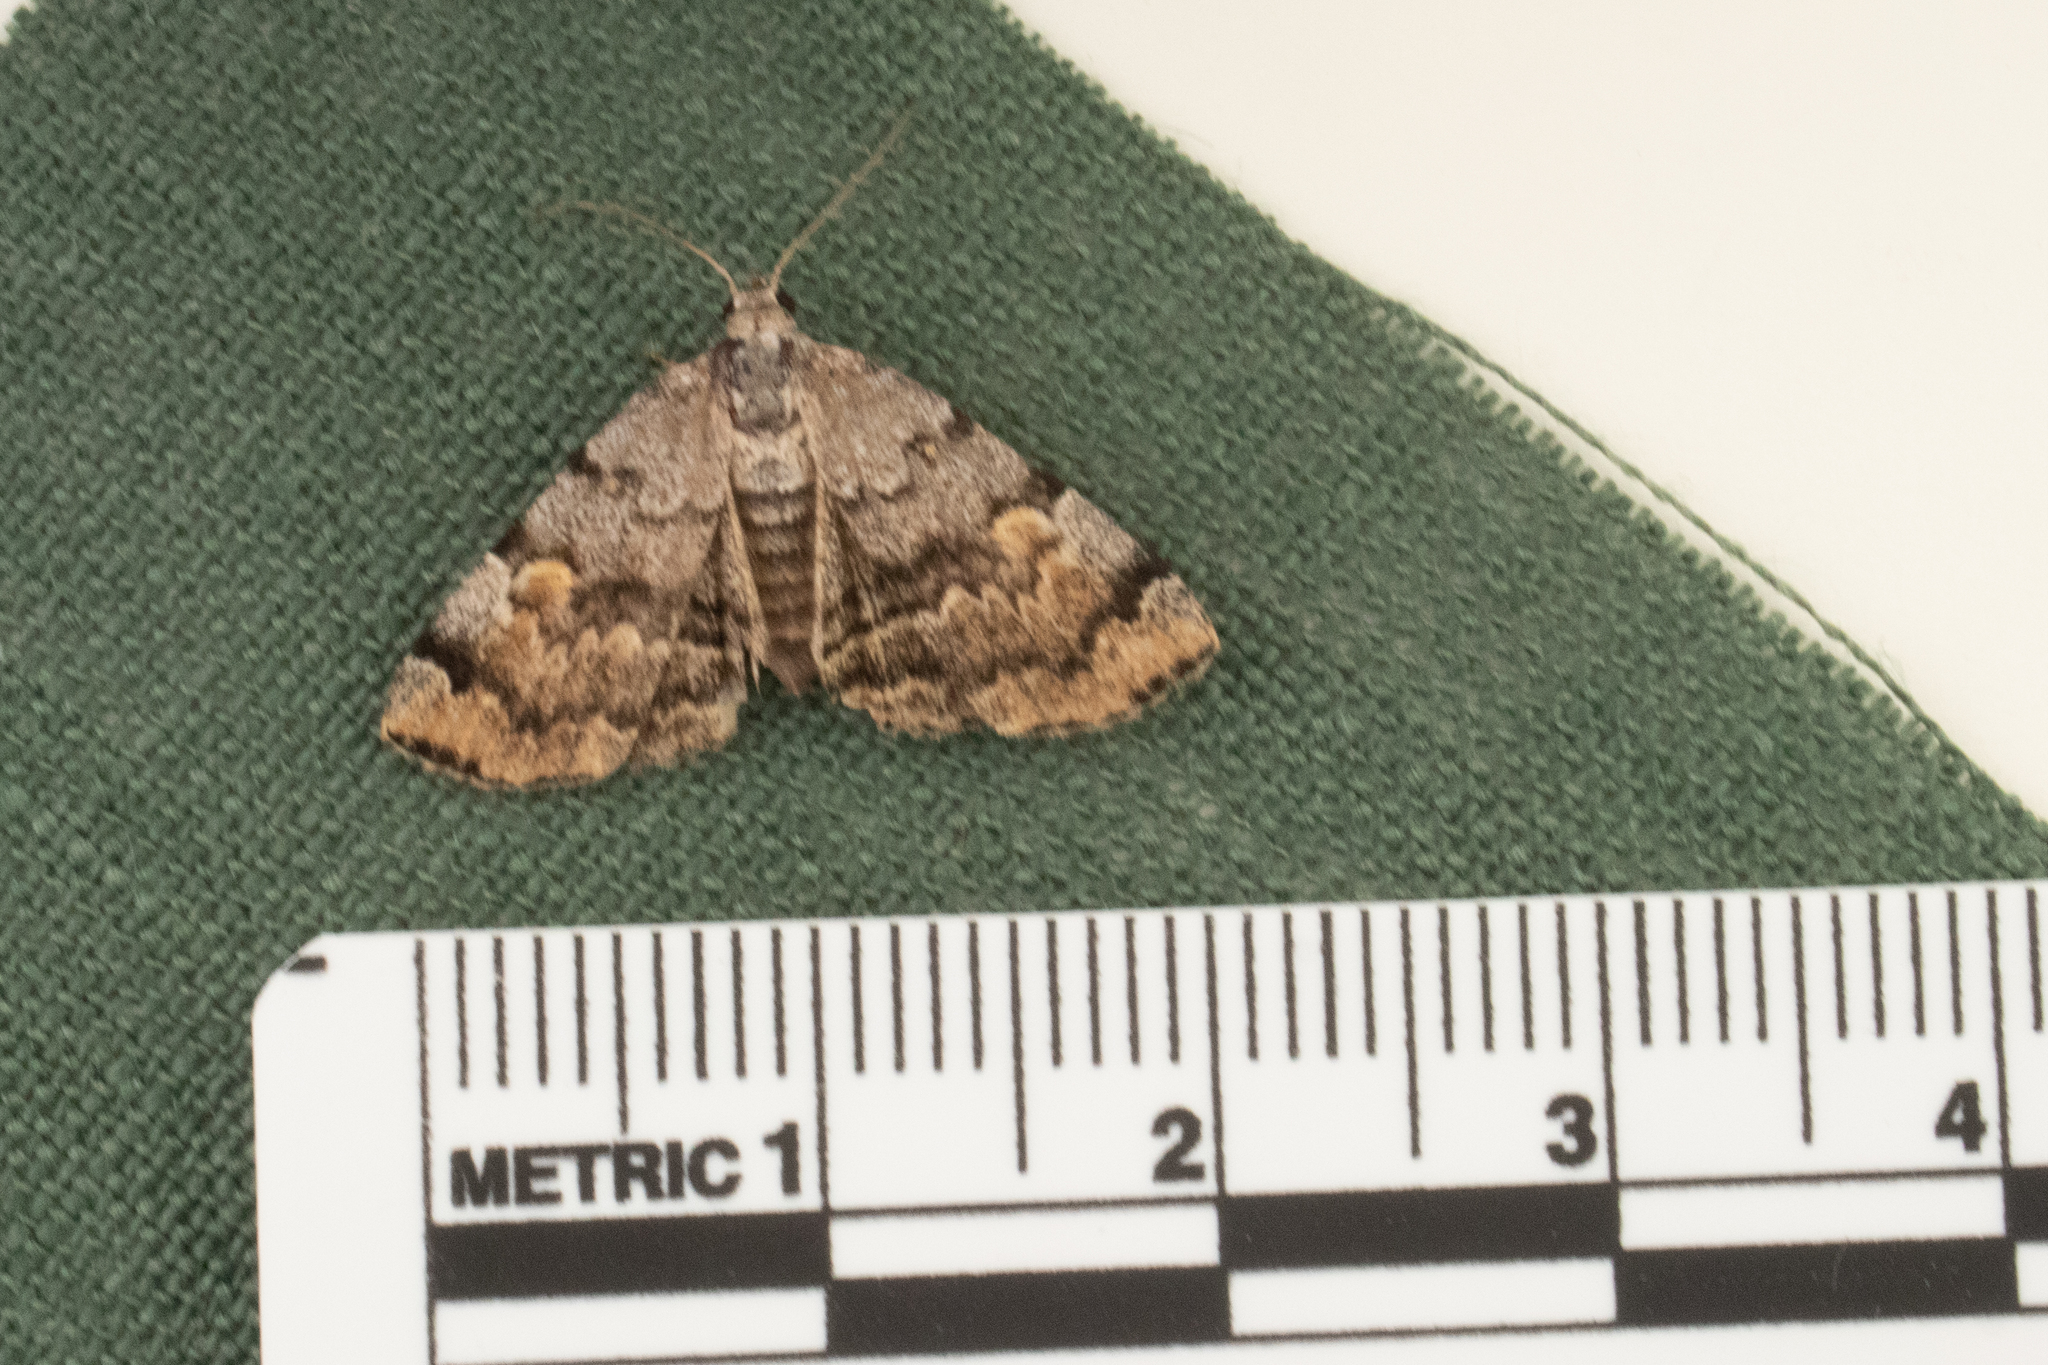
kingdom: Animalia
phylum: Arthropoda
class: Insecta
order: Lepidoptera
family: Erebidae
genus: Idia
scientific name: Idia americalis
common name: American idia moth
